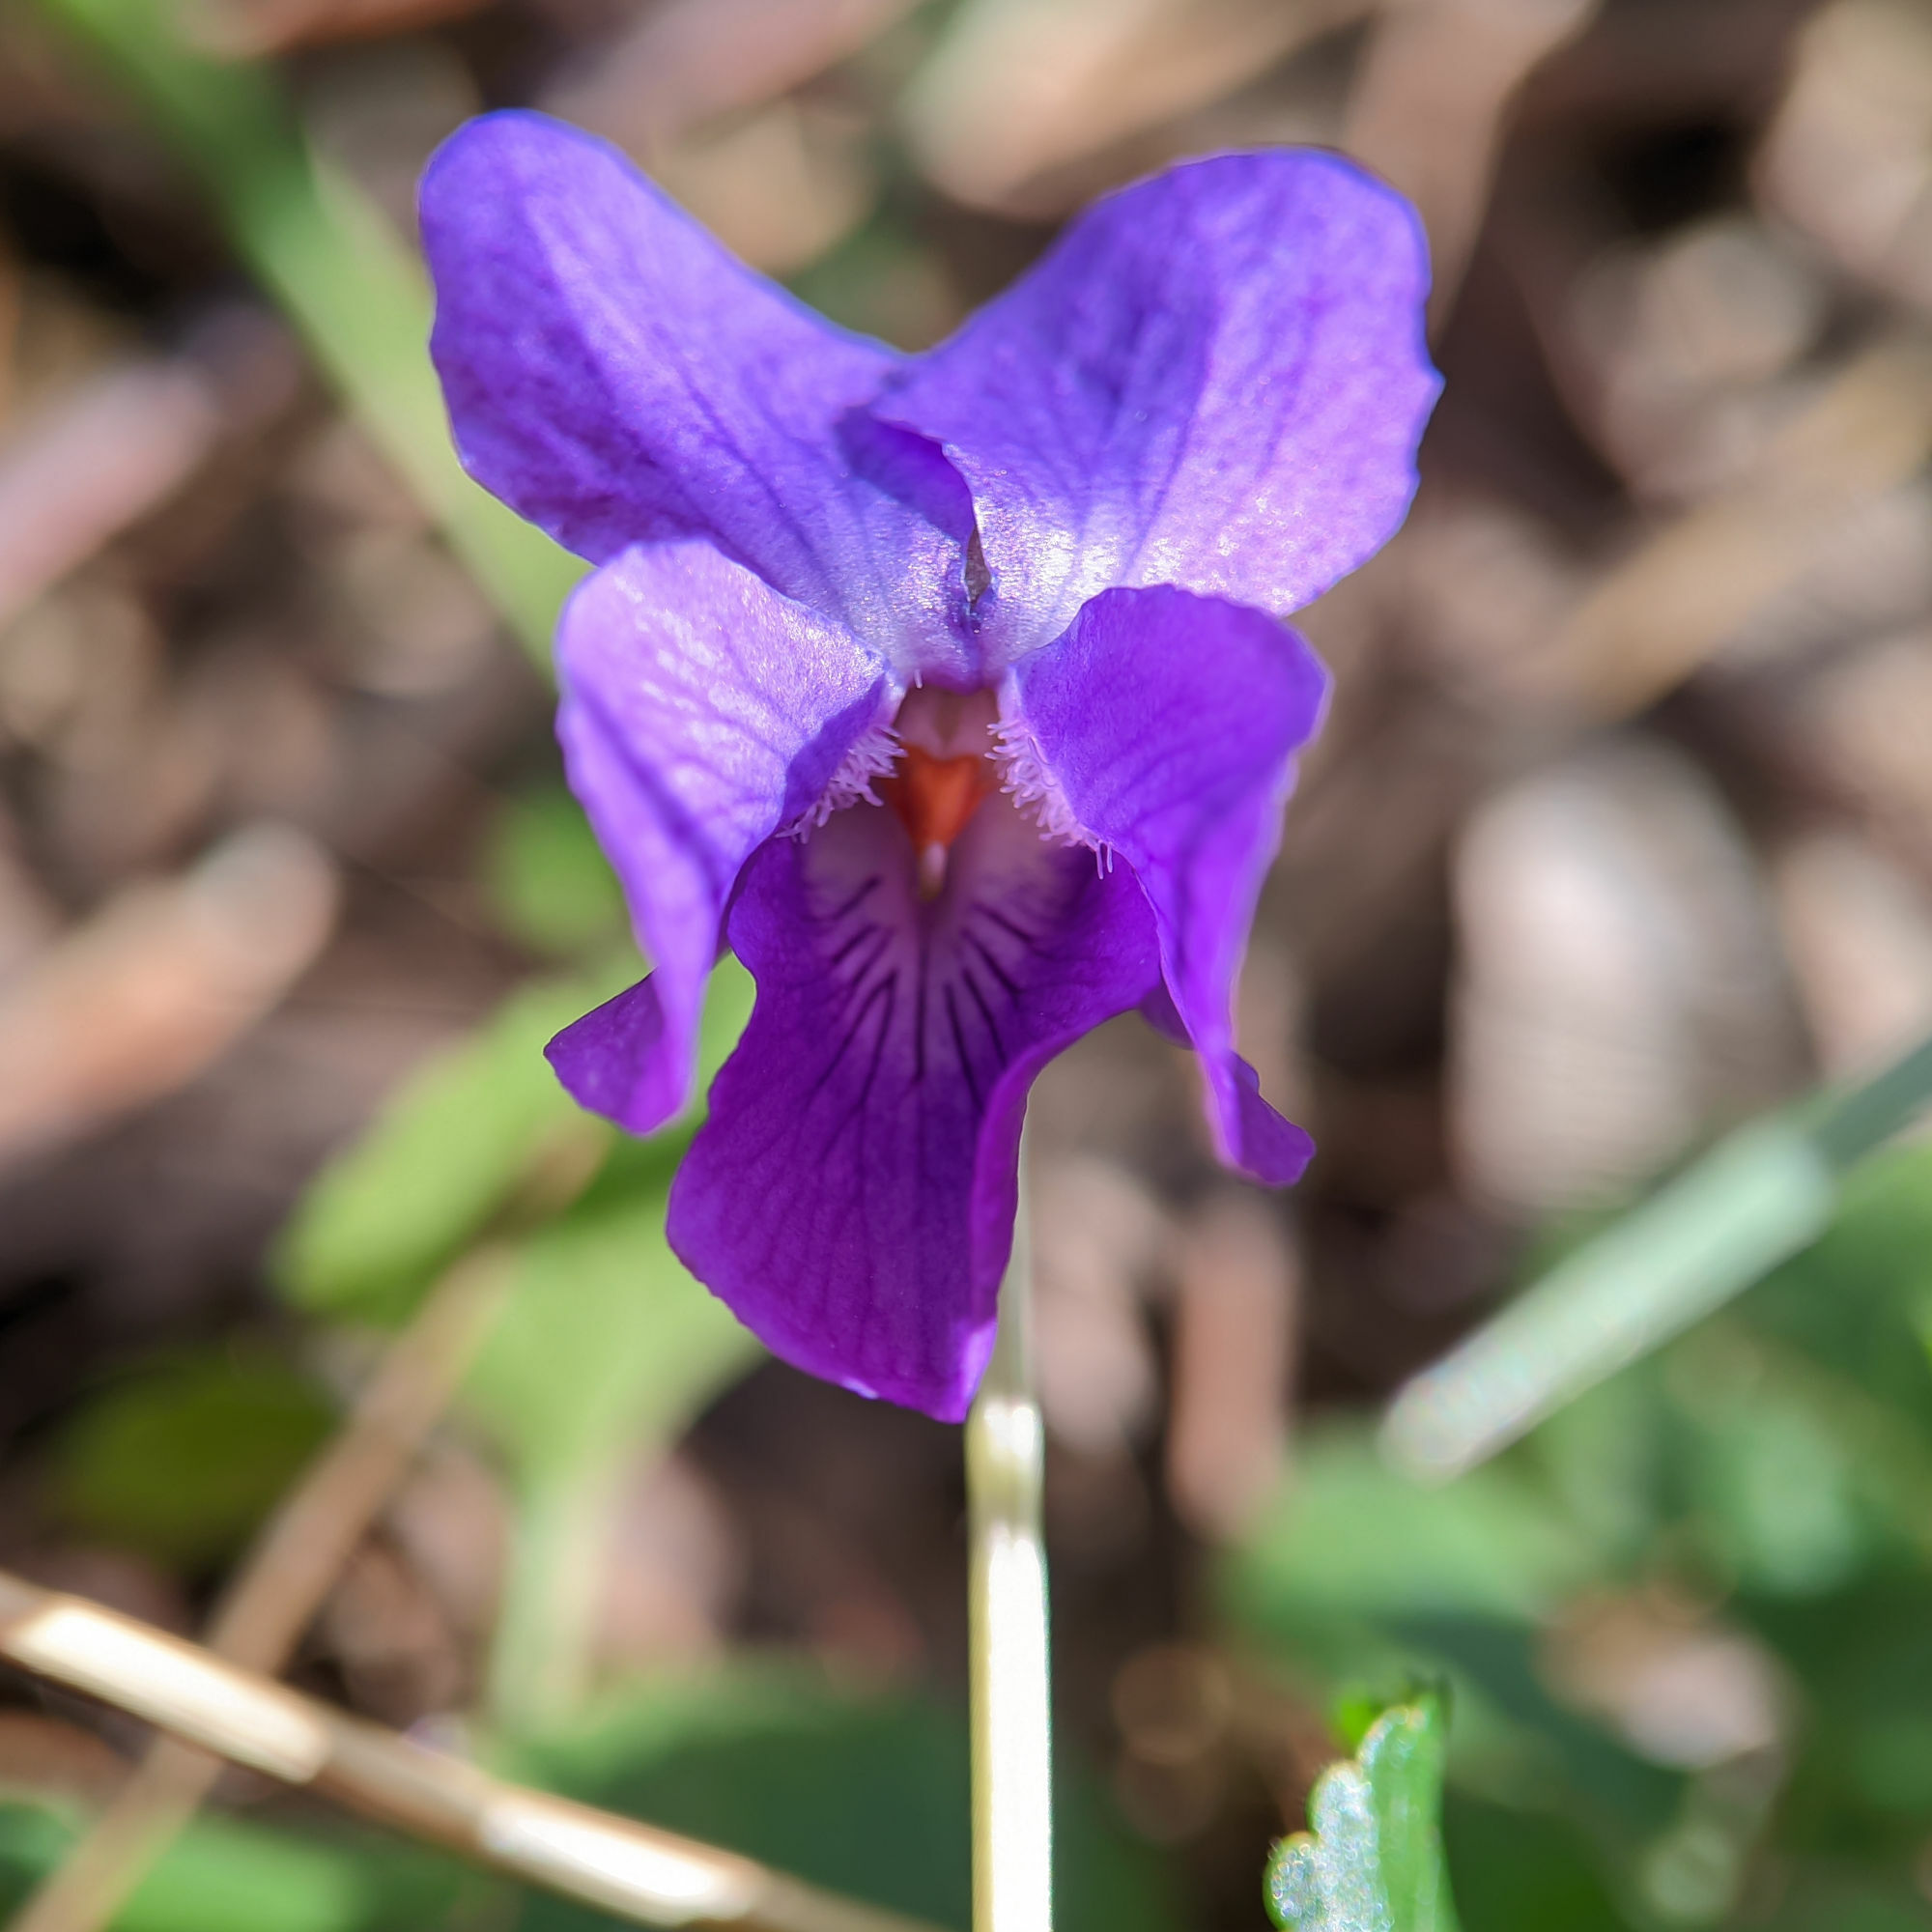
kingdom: Plantae
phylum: Tracheophyta
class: Magnoliopsida
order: Malpighiales
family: Violaceae
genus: Viola
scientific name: Viola odorata
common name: Sweet violet
